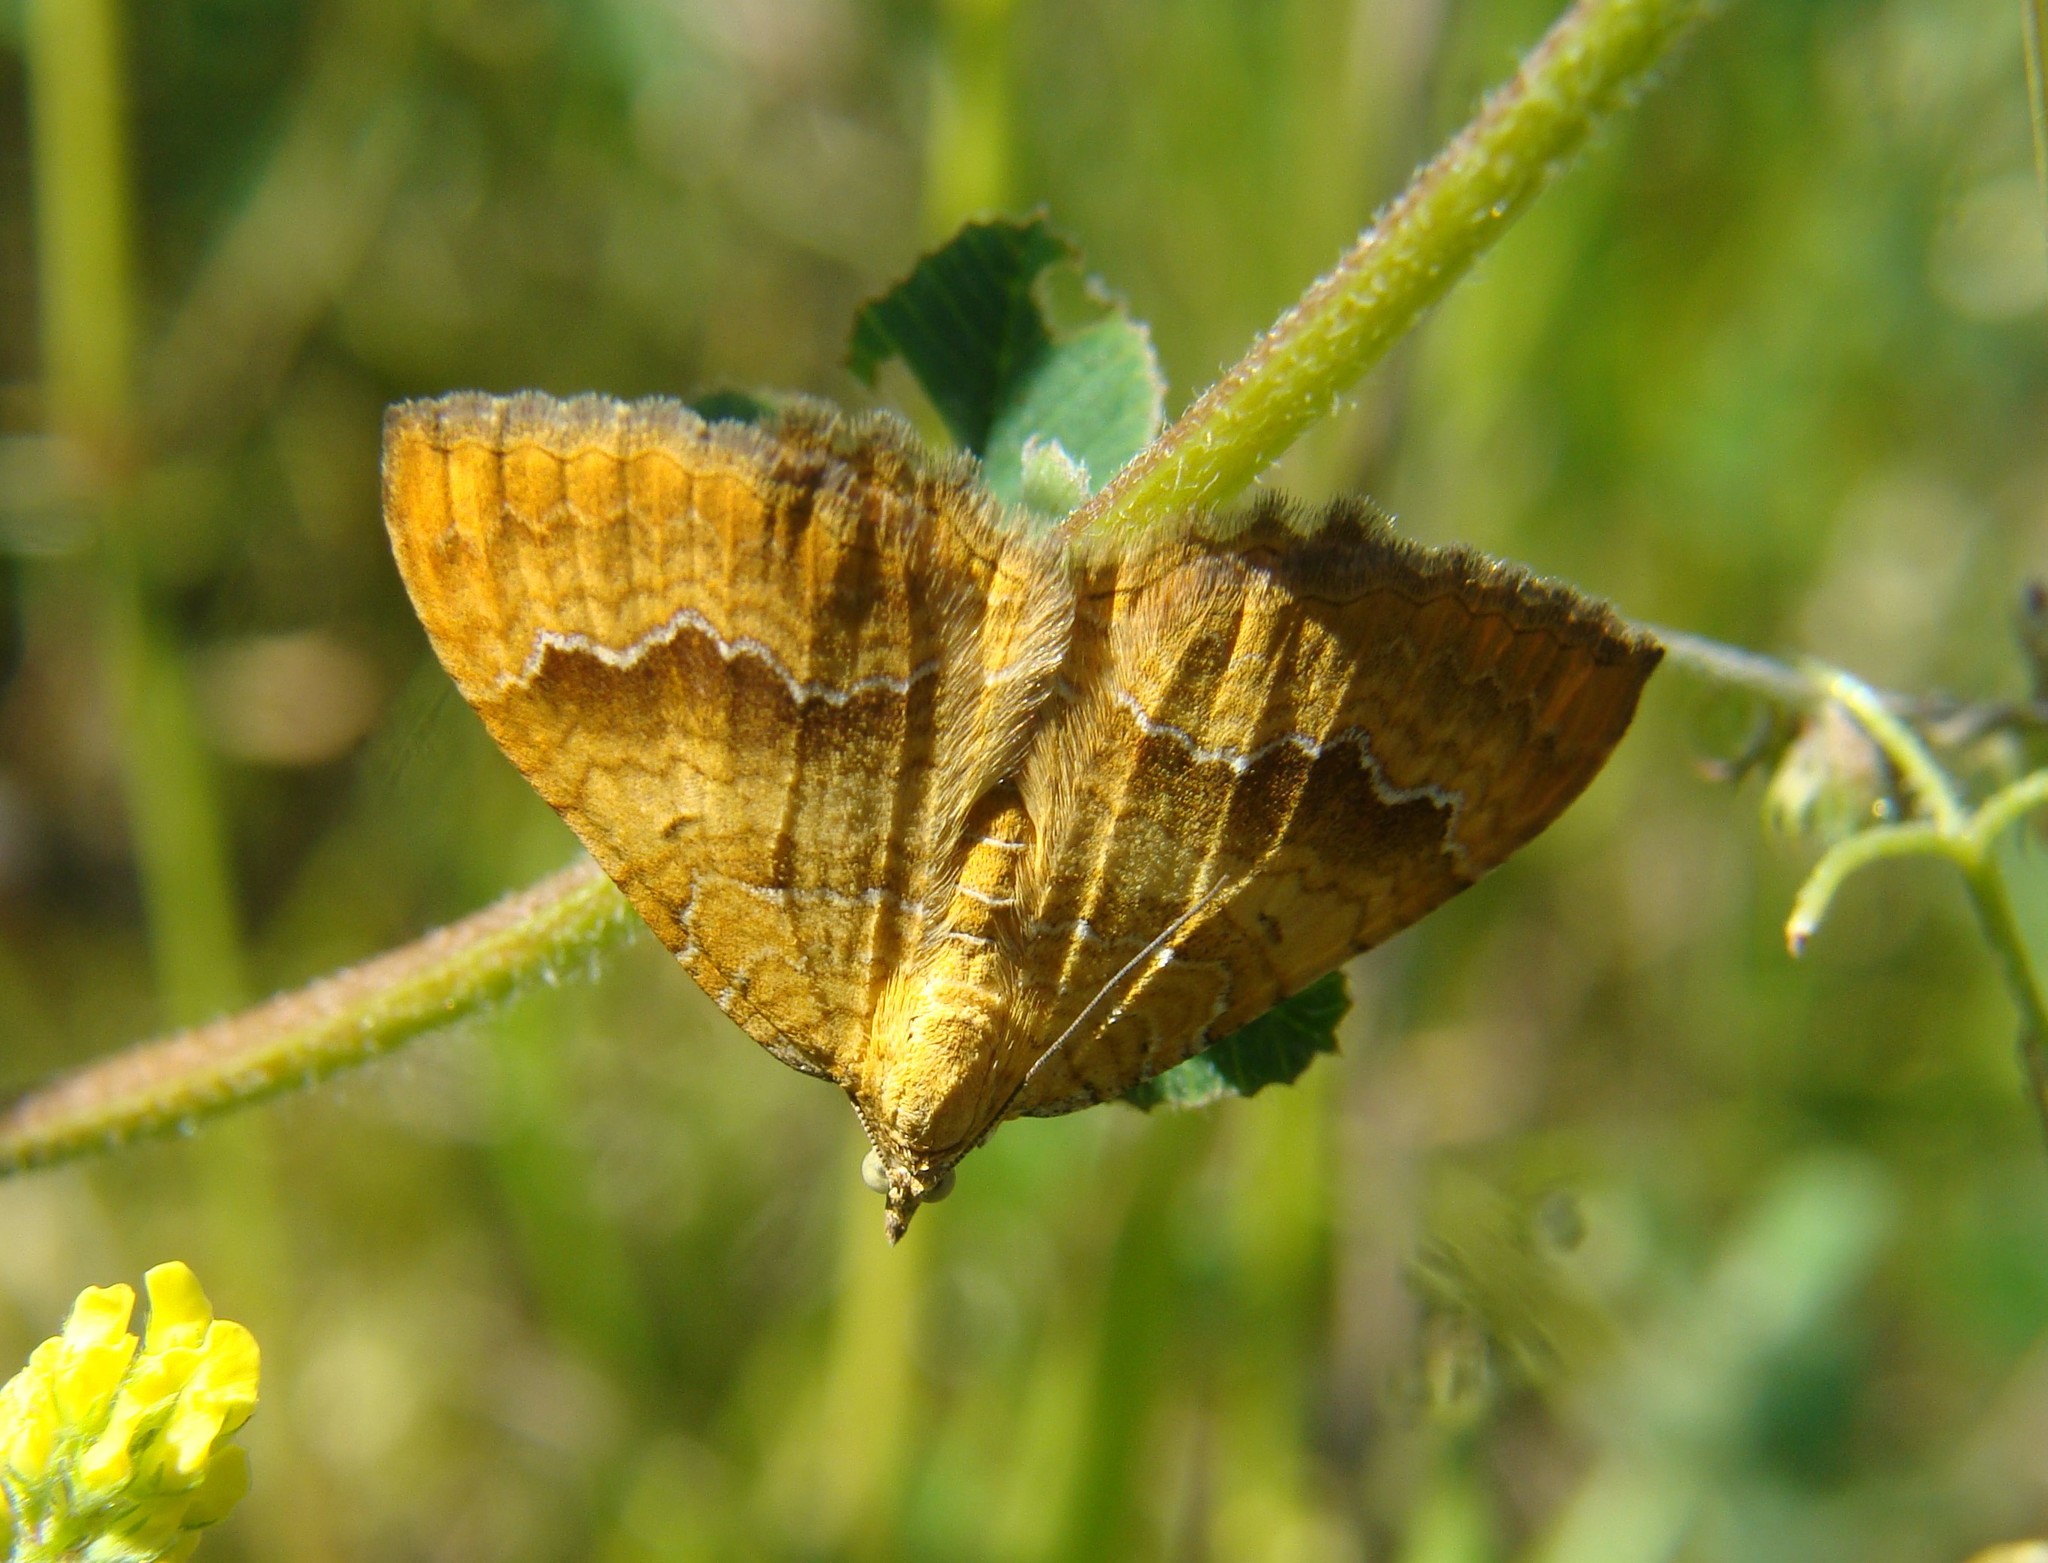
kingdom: Animalia
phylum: Arthropoda
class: Insecta
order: Lepidoptera
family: Geometridae
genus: Camptogramma
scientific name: Camptogramma bilineata
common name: Yellow shell
